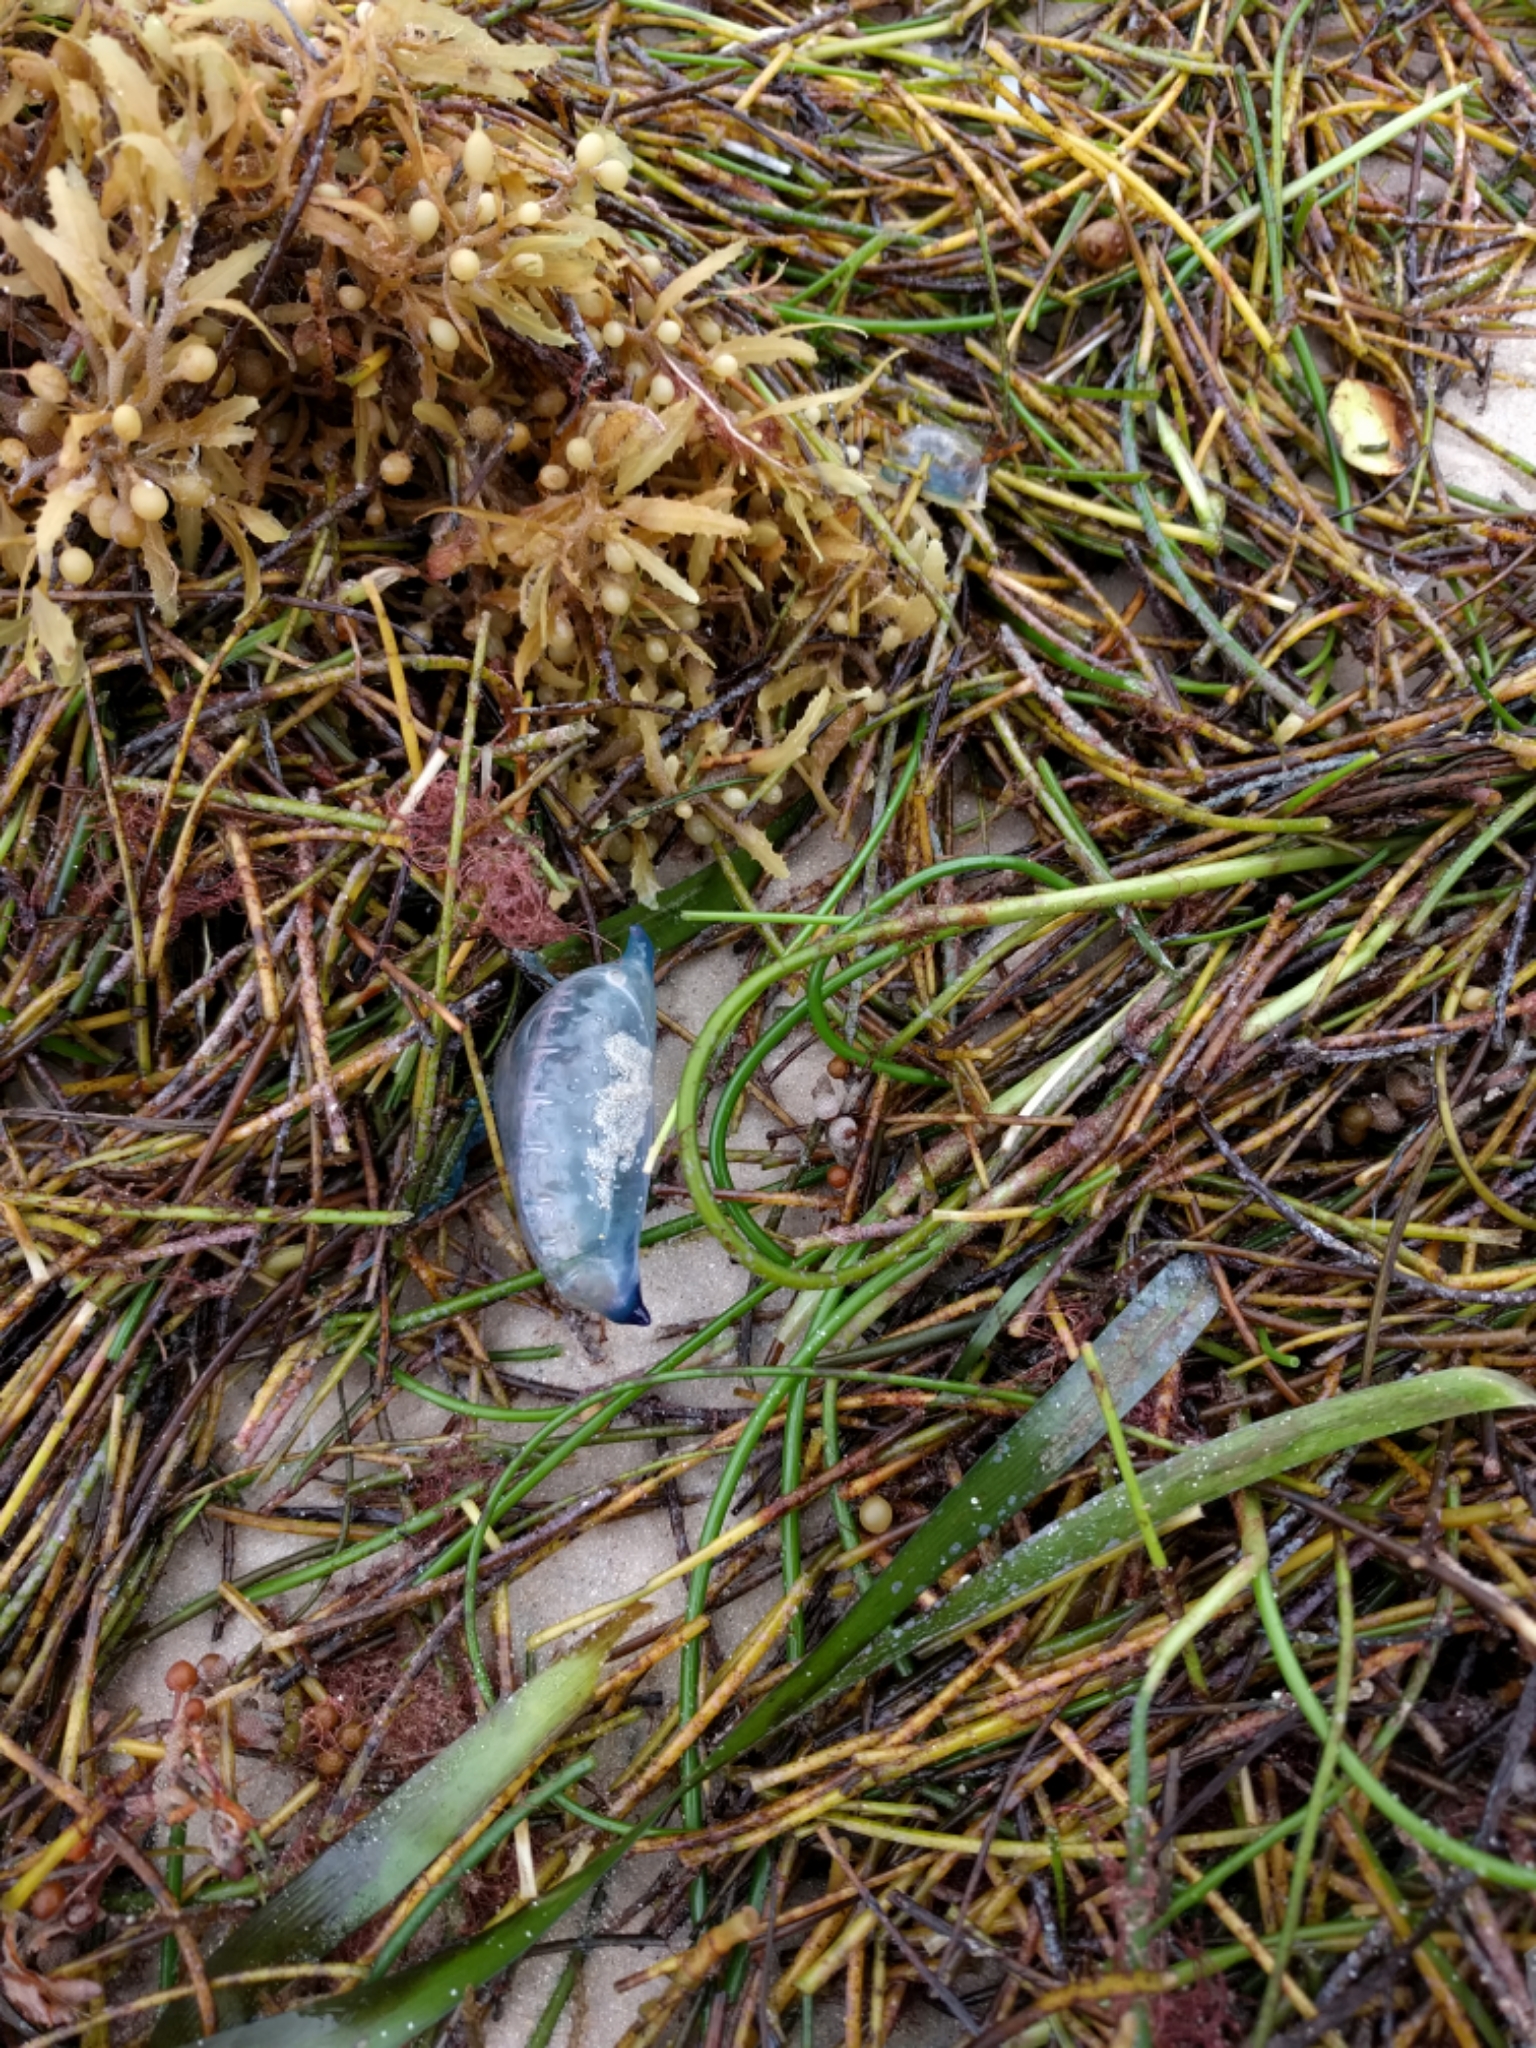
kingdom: Animalia
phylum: Cnidaria
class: Hydrozoa
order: Siphonophorae
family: Physaliidae
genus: Physalia
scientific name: Physalia physalis
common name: Portuguese man-of-war
